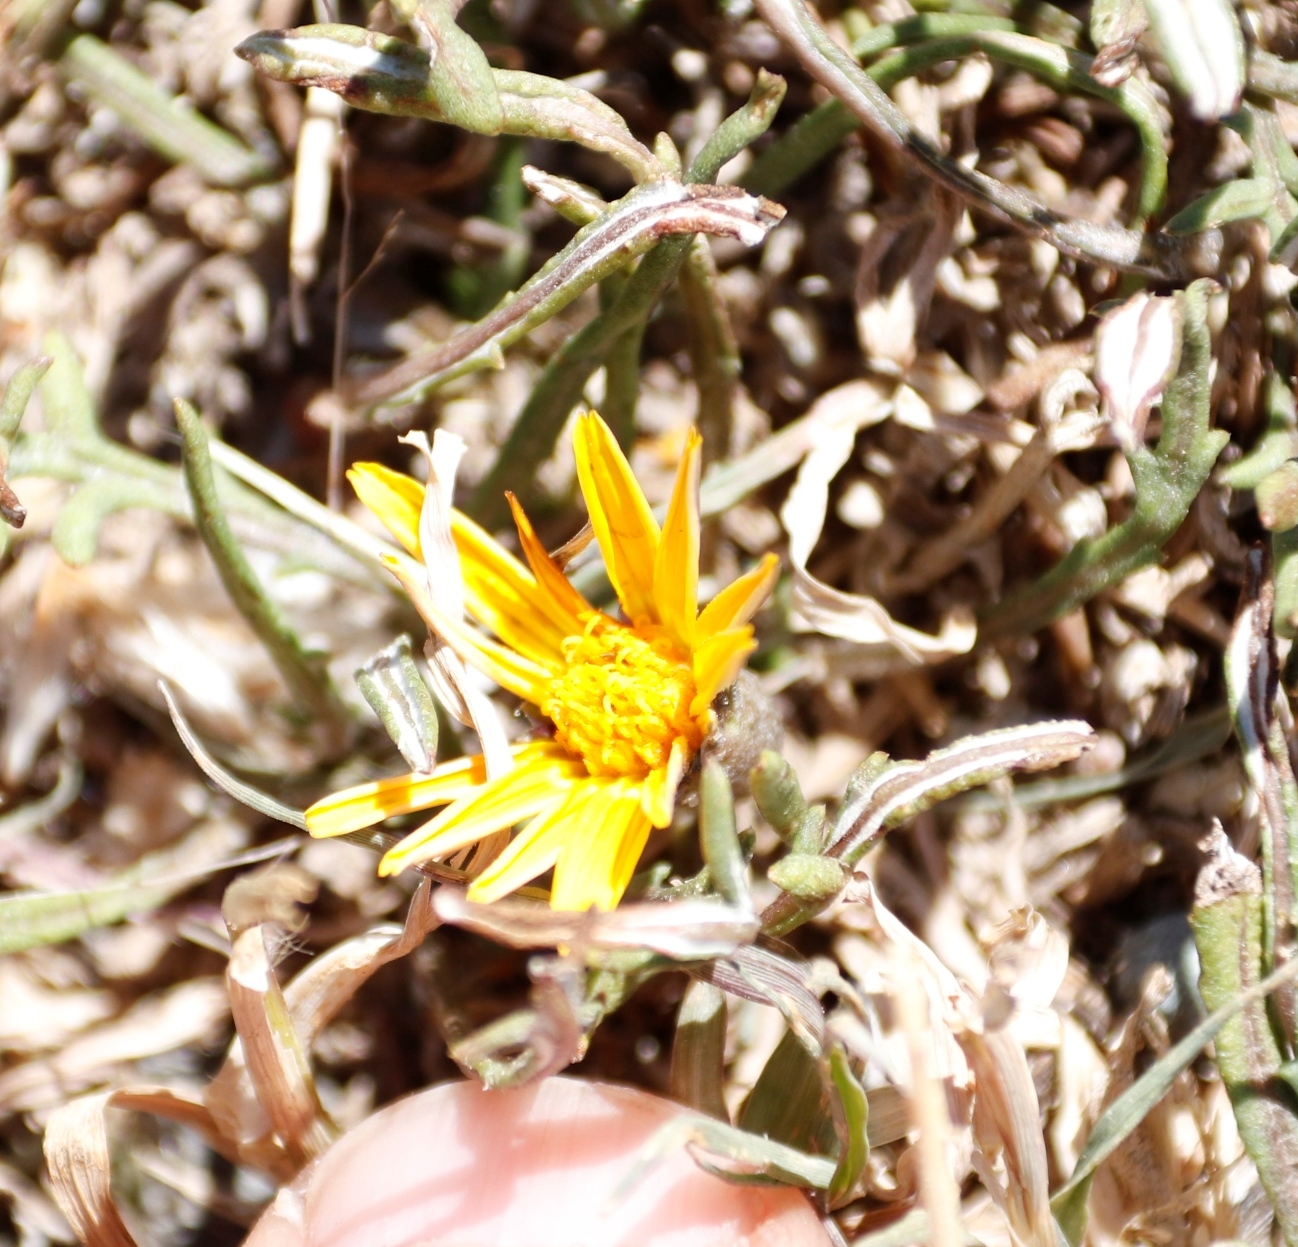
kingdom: Plantae
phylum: Tracheophyta
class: Magnoliopsida
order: Asterales
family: Asteraceae
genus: Gazania
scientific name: Gazania krebsiana
